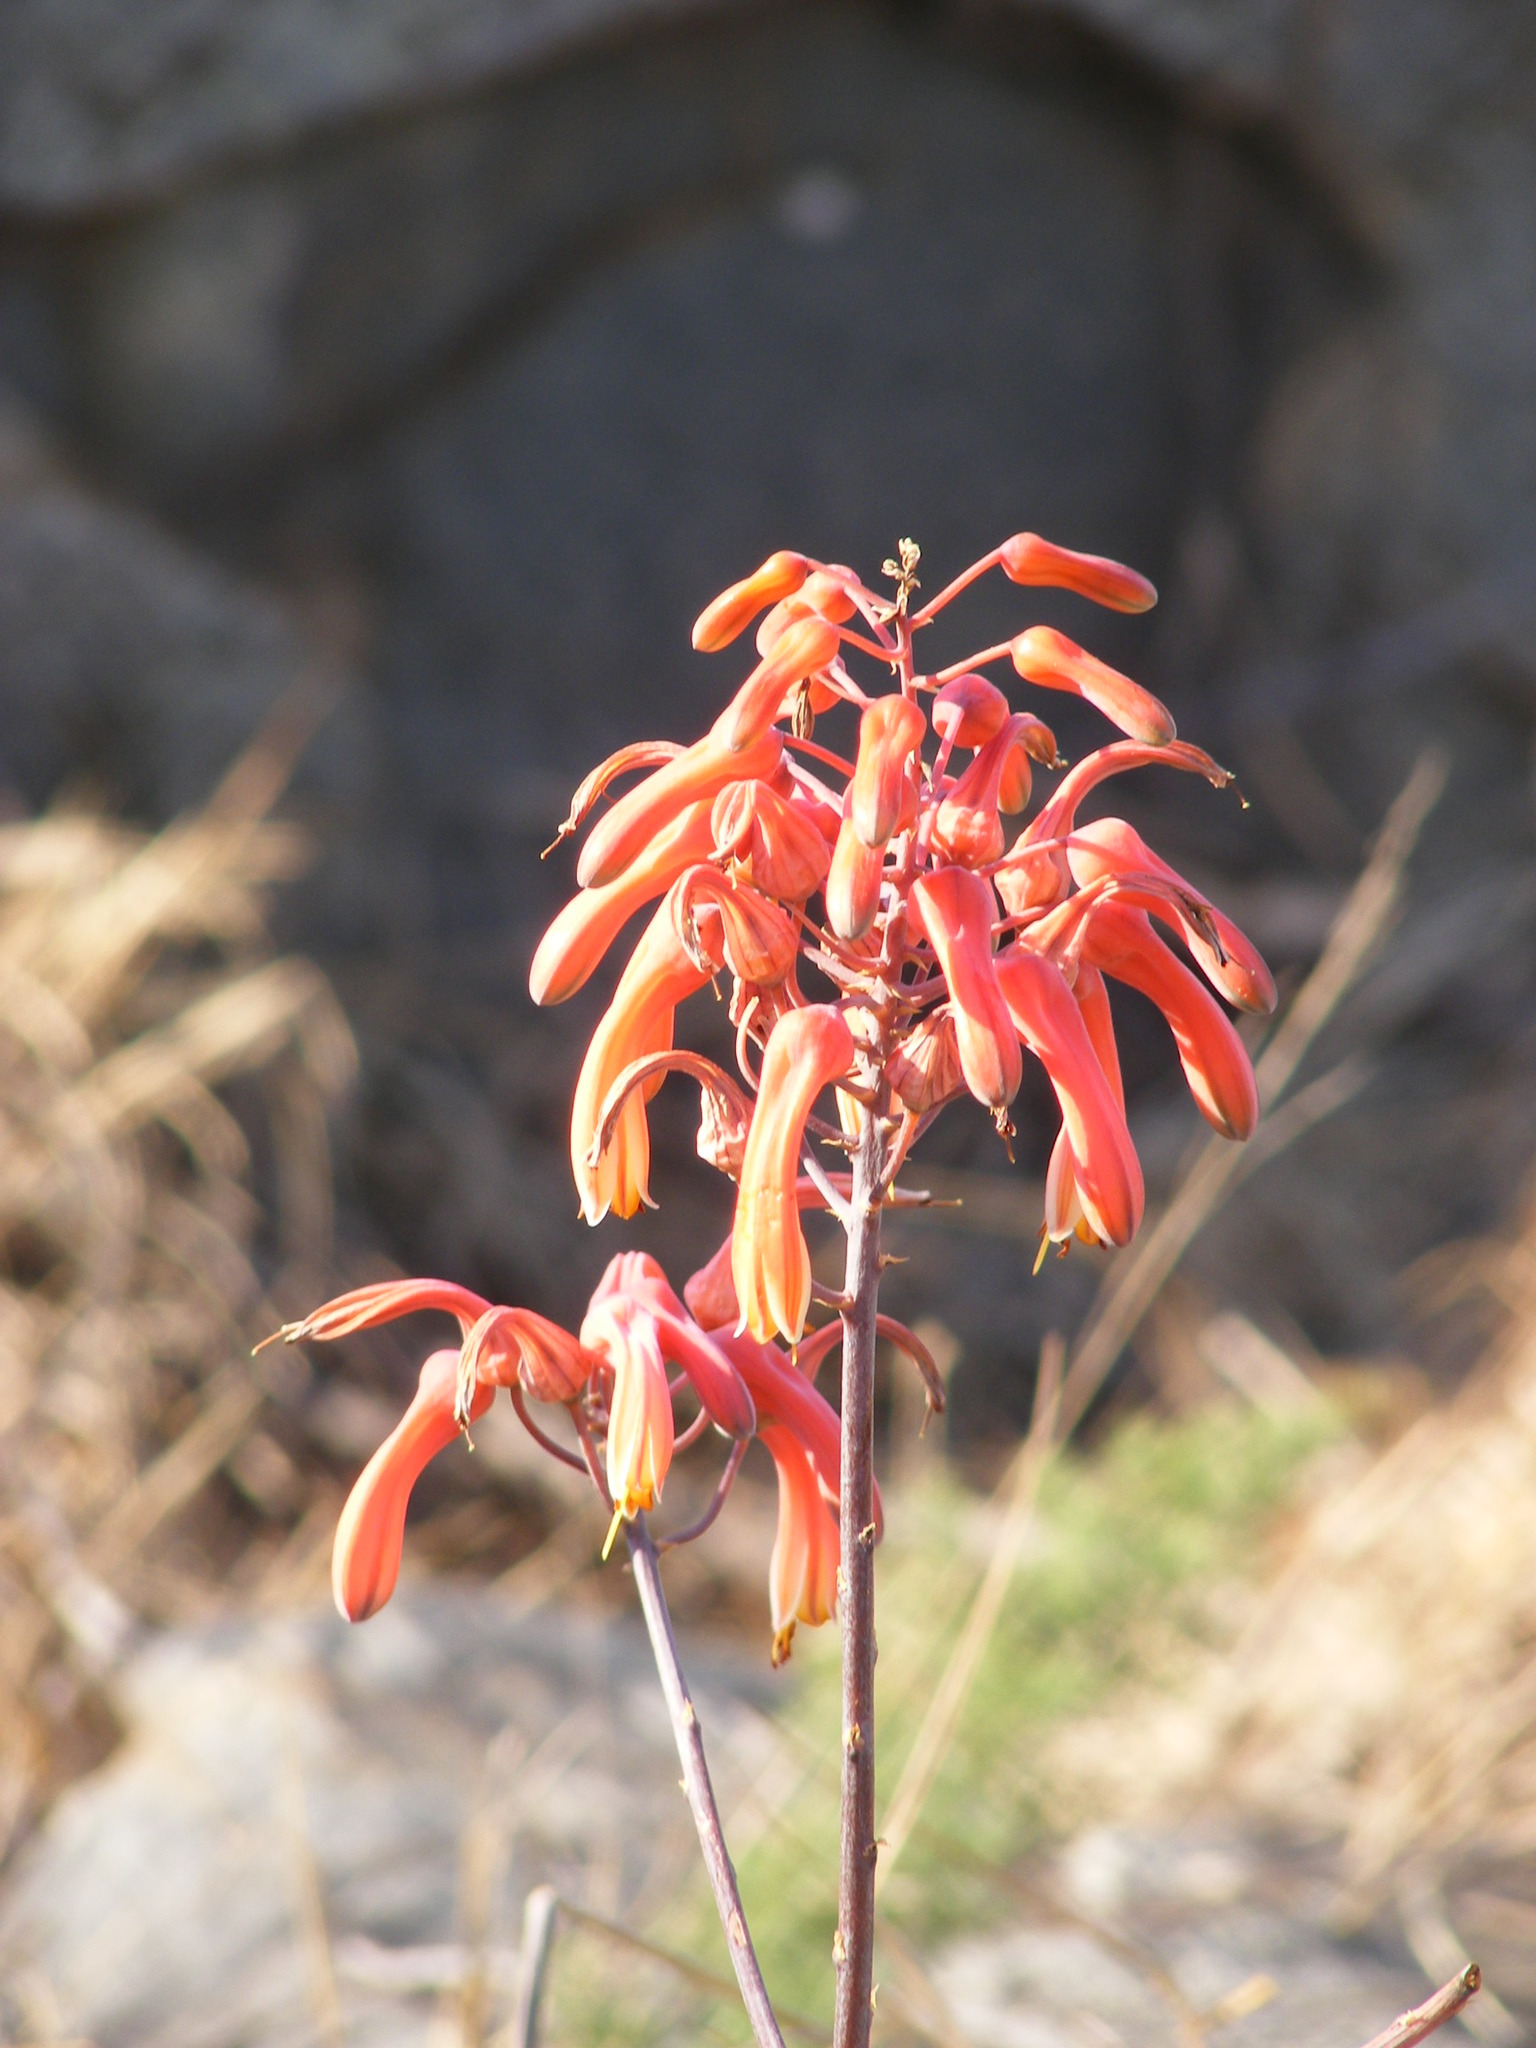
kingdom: Plantae
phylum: Tracheophyta
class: Liliopsida
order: Asparagales
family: Asphodelaceae
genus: Aloe
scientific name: Aloe chabaudii
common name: Chabaud's aloe
